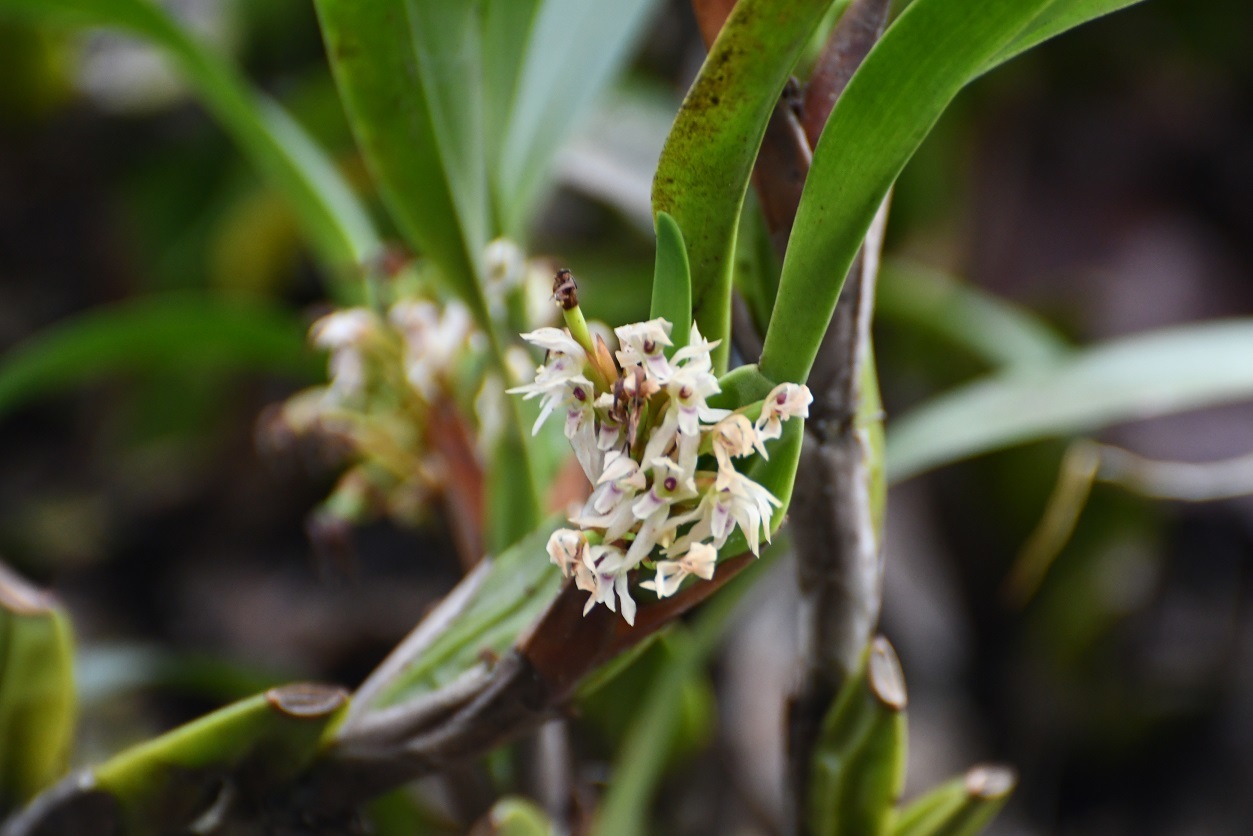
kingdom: Plantae
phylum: Tracheophyta
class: Liliopsida
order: Asparagales
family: Orchidaceae
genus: Maxillaria
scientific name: Maxillaria densa
